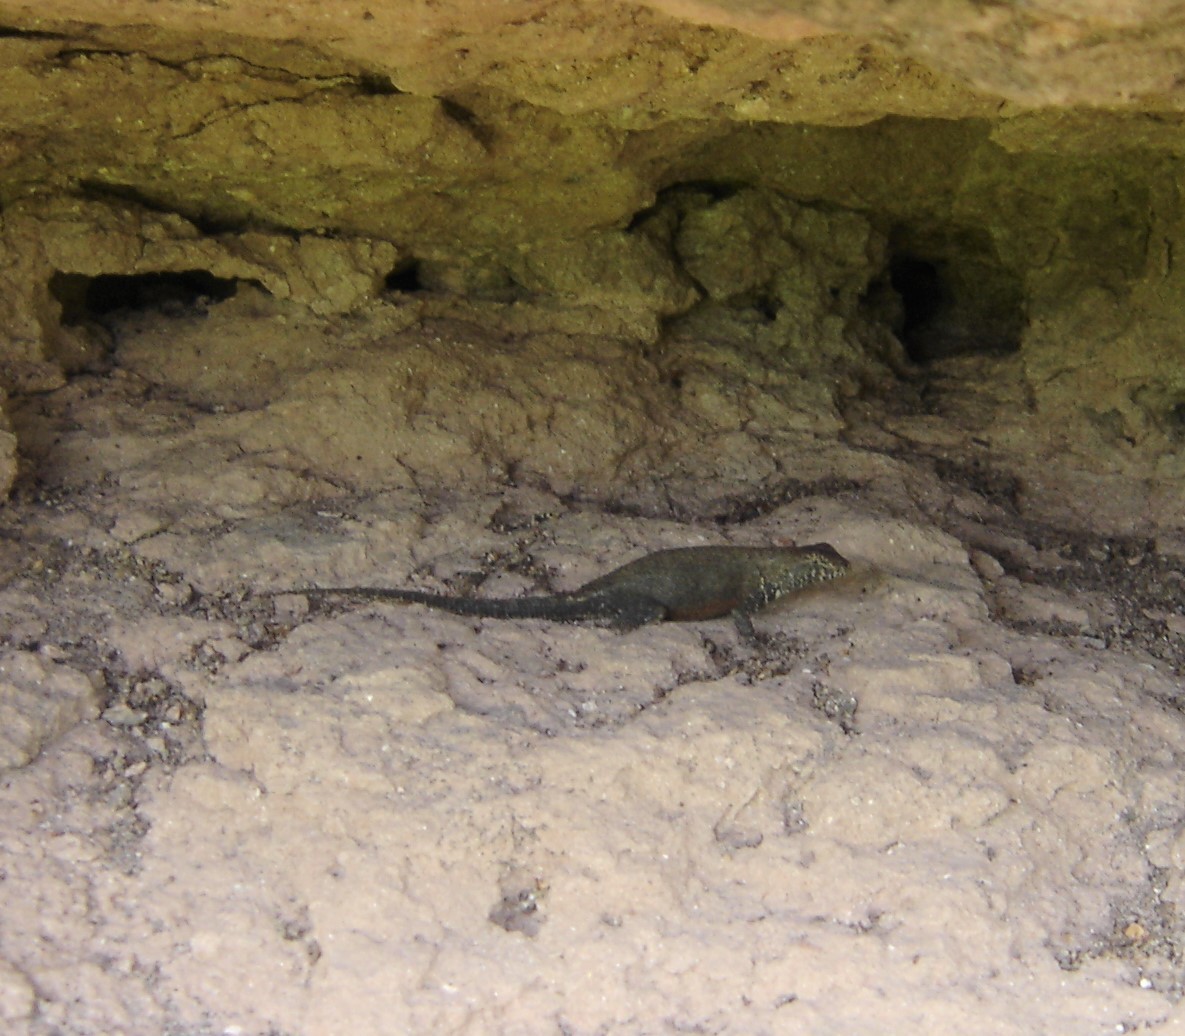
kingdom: Animalia
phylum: Chordata
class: Squamata
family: Phrynosomatidae
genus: Sceloporus
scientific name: Sceloporus nelsoni
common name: Nelson's spiny lizard
